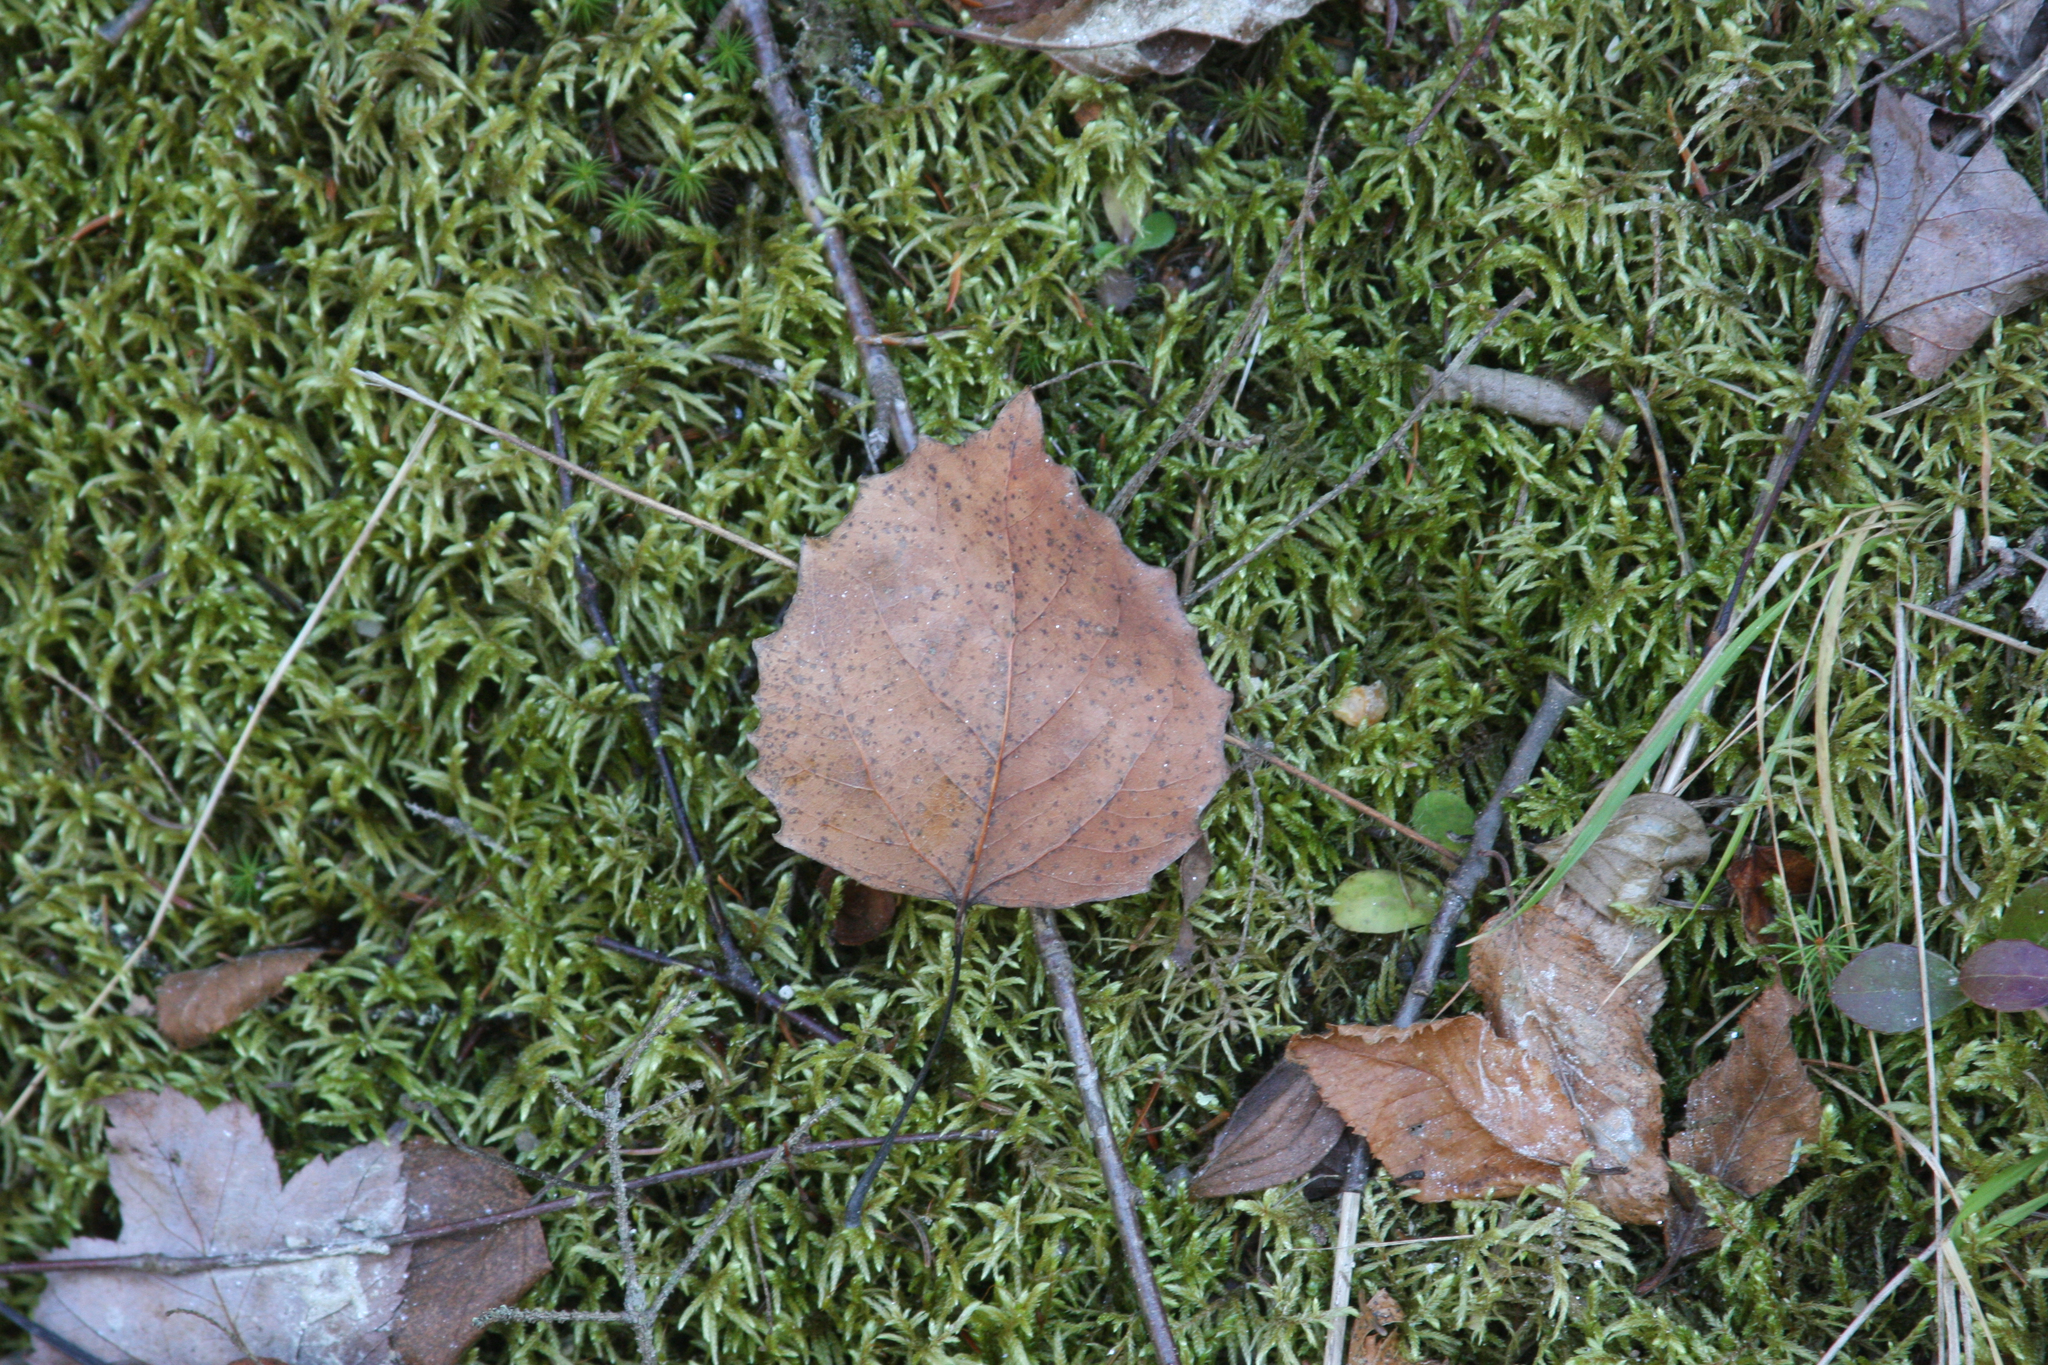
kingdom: Plantae
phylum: Tracheophyta
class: Magnoliopsida
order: Malpighiales
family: Salicaceae
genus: Populus
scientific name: Populus grandidentata
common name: Bigtooth aspen
